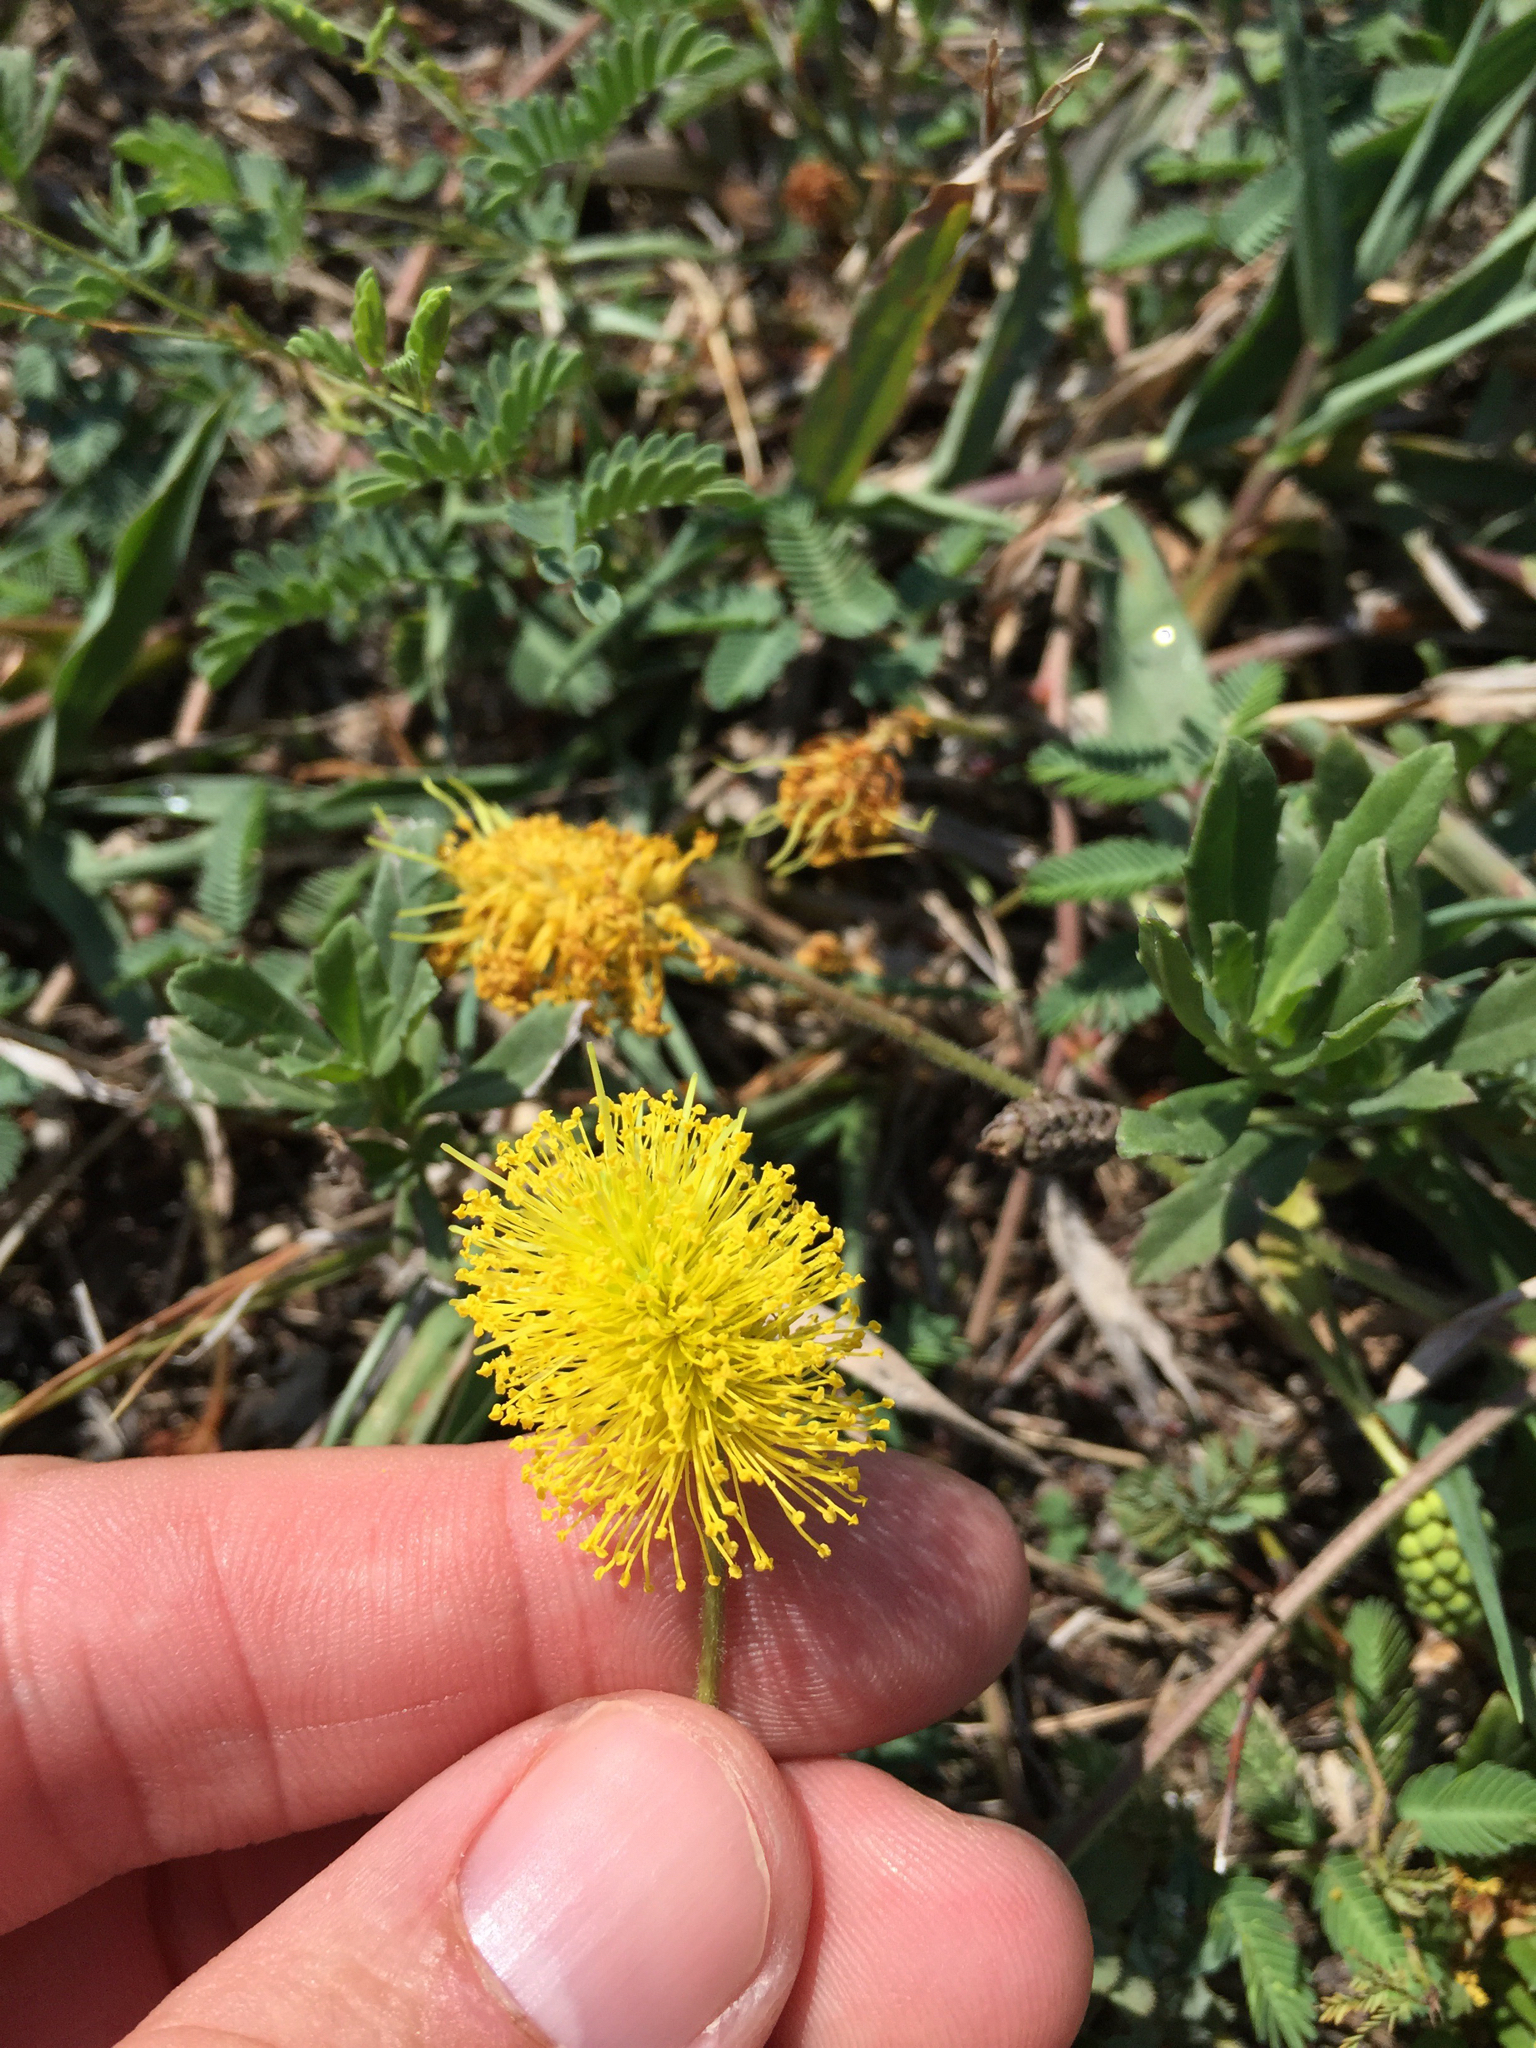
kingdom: Plantae
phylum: Tracheophyta
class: Magnoliopsida
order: Fabales
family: Fabaceae
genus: Neptunia
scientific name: Neptunia lutea
